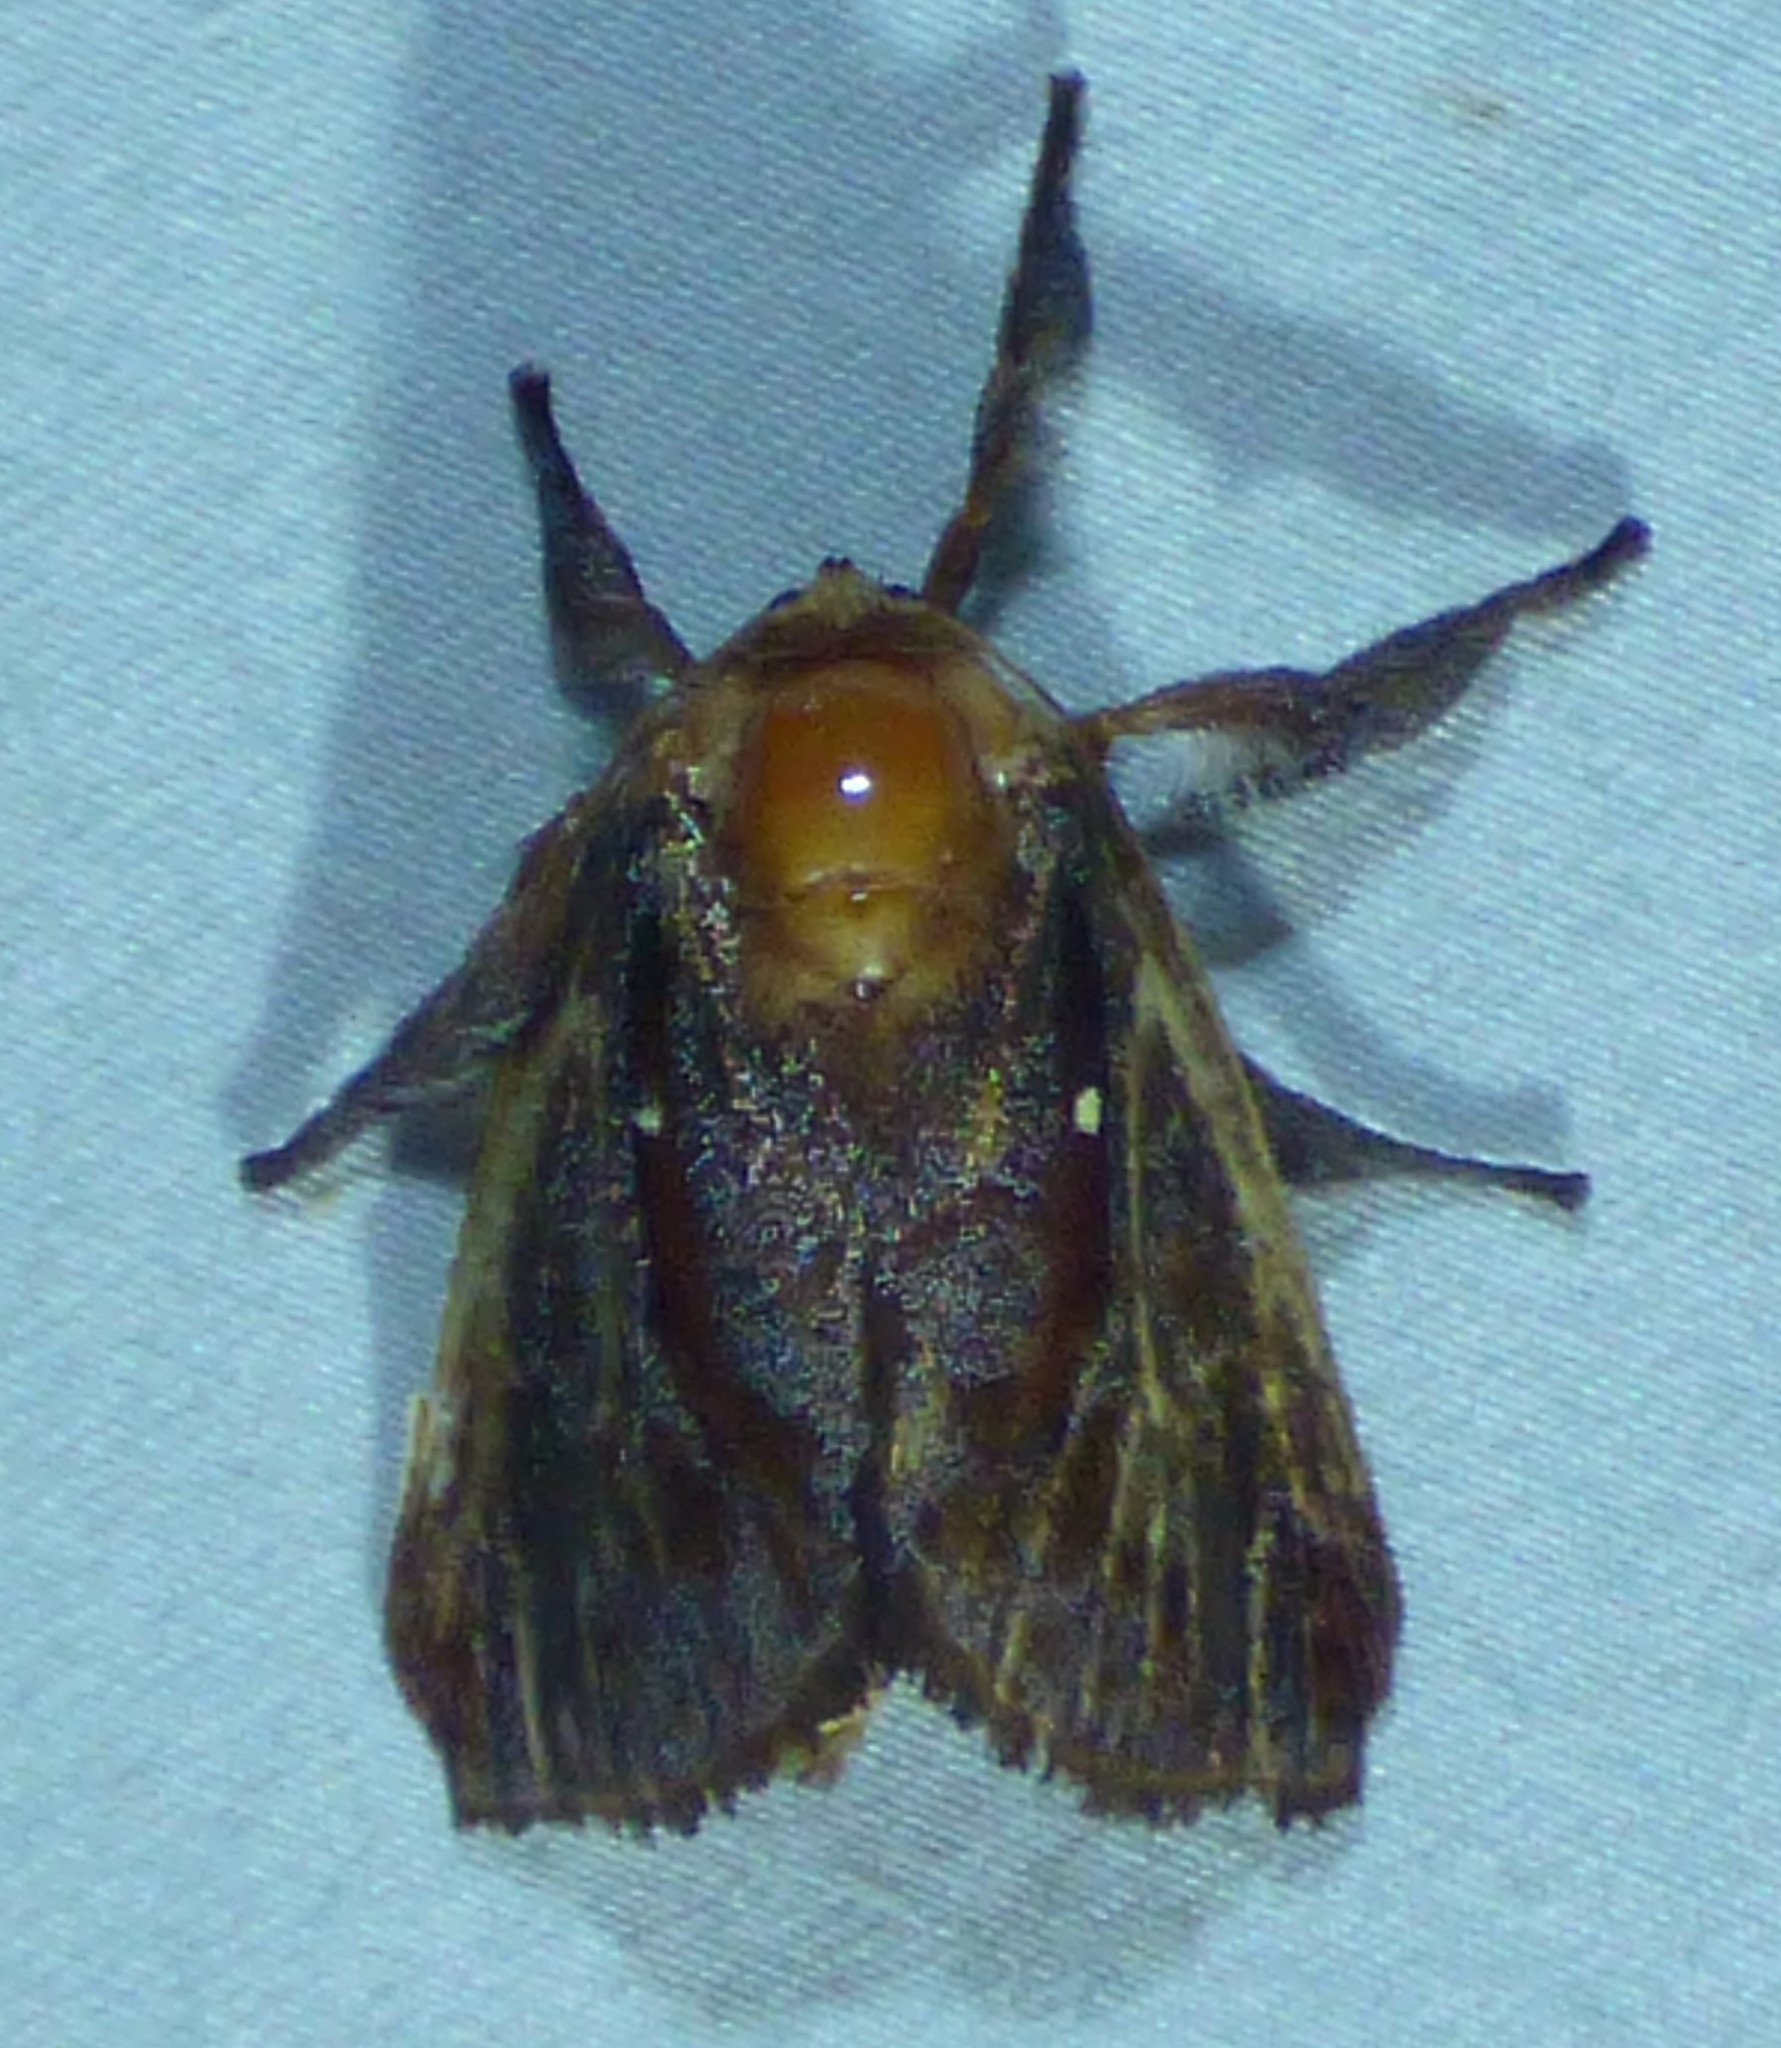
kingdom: Animalia
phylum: Arthropoda
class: Insecta
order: Lepidoptera
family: Limacodidae
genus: Acharia
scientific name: Acharia stimulea
